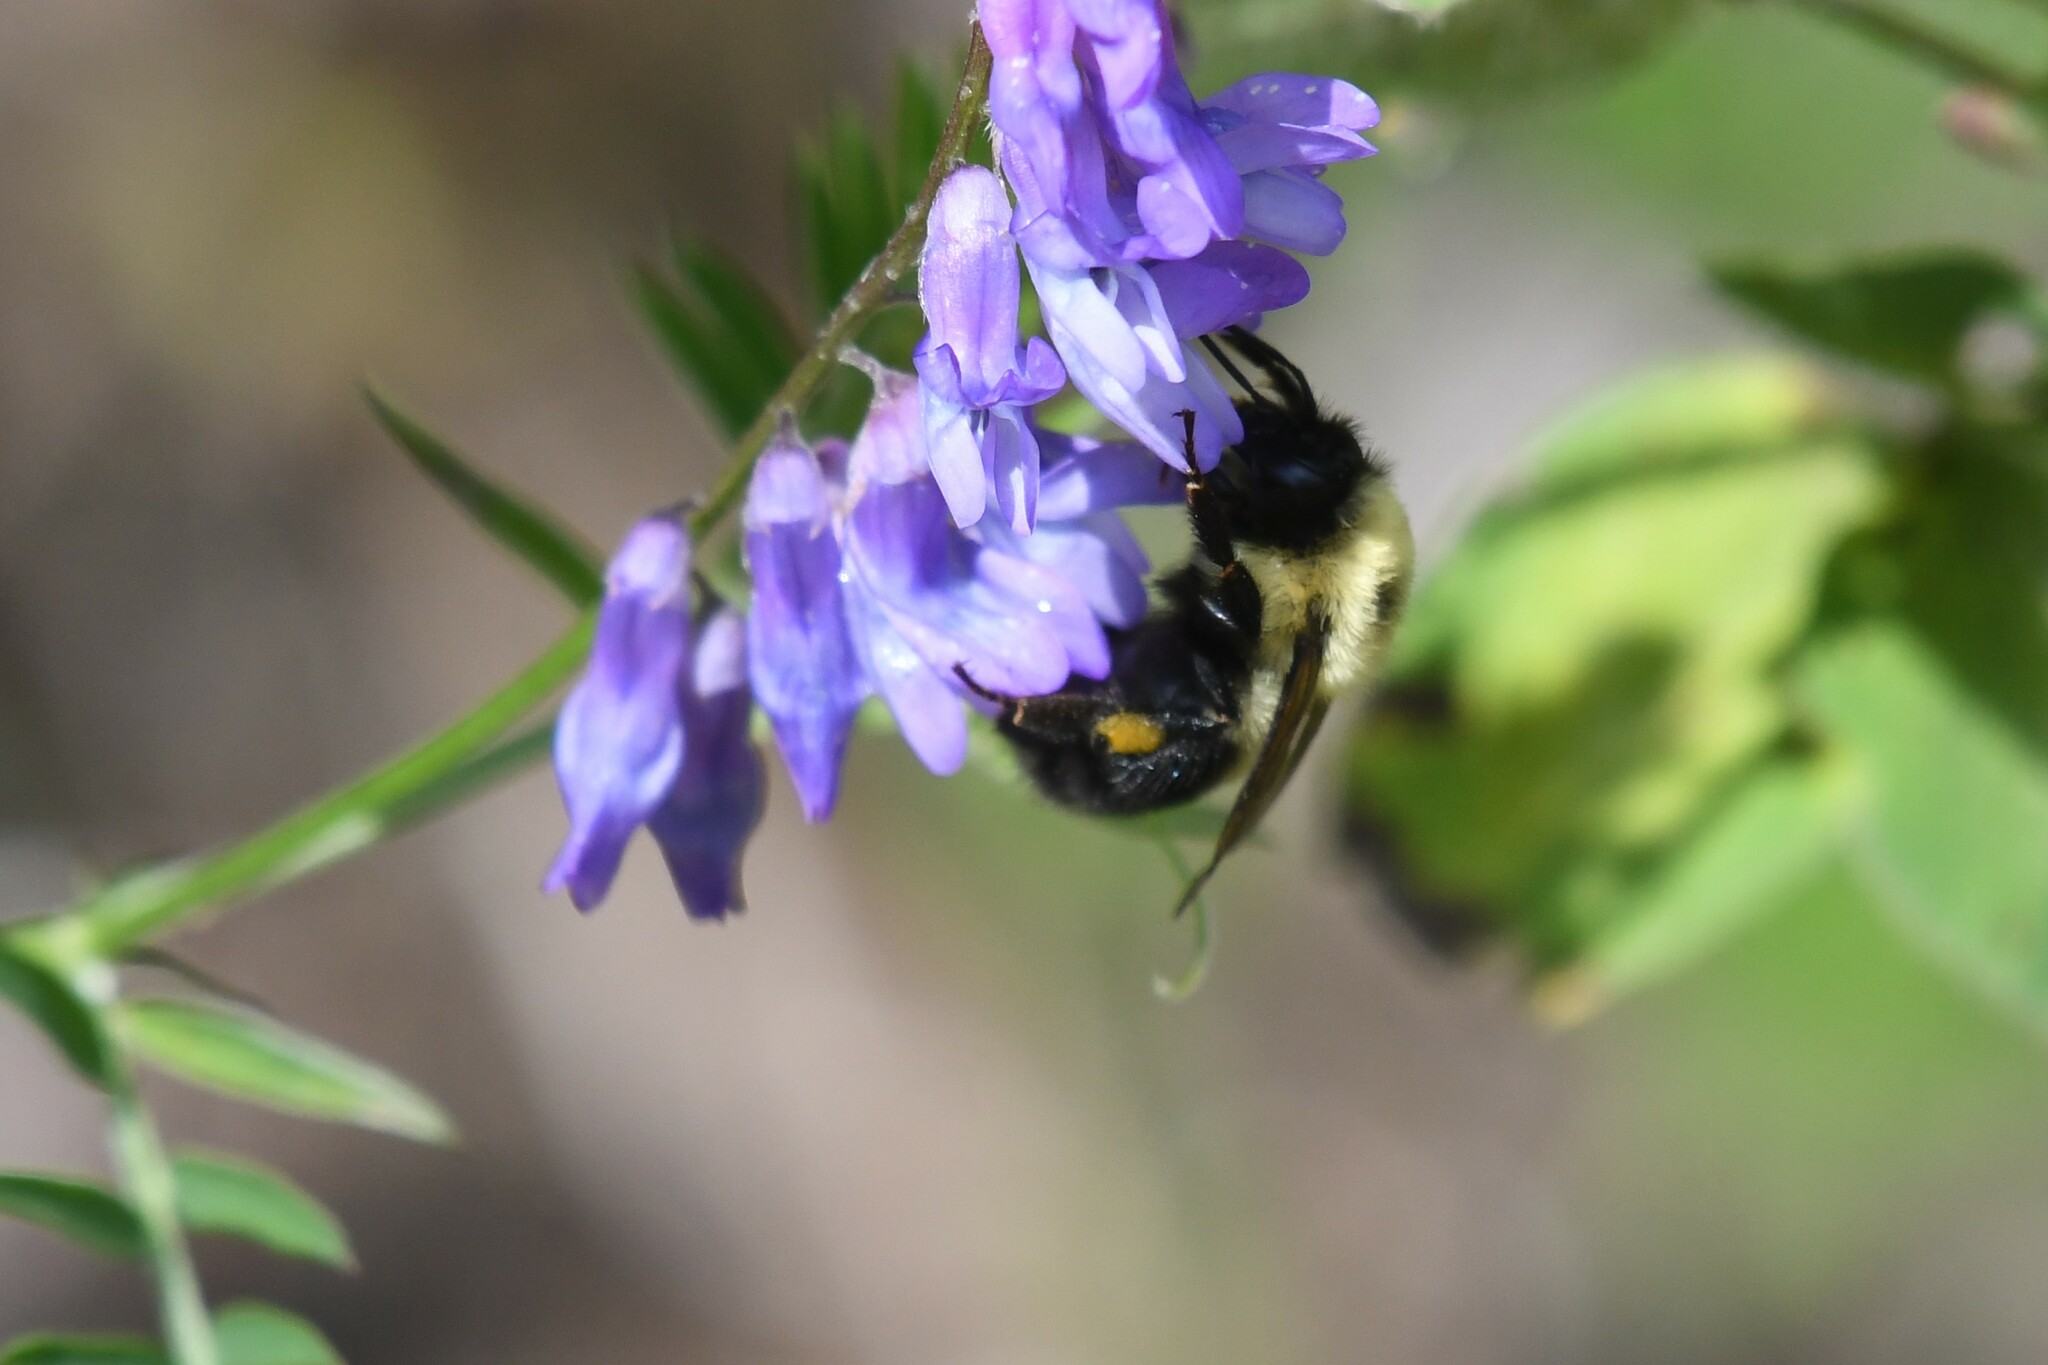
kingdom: Animalia
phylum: Arthropoda
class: Insecta
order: Hymenoptera
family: Apidae
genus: Bombus
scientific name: Bombus bimaculatus
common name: Two-spotted bumble bee
